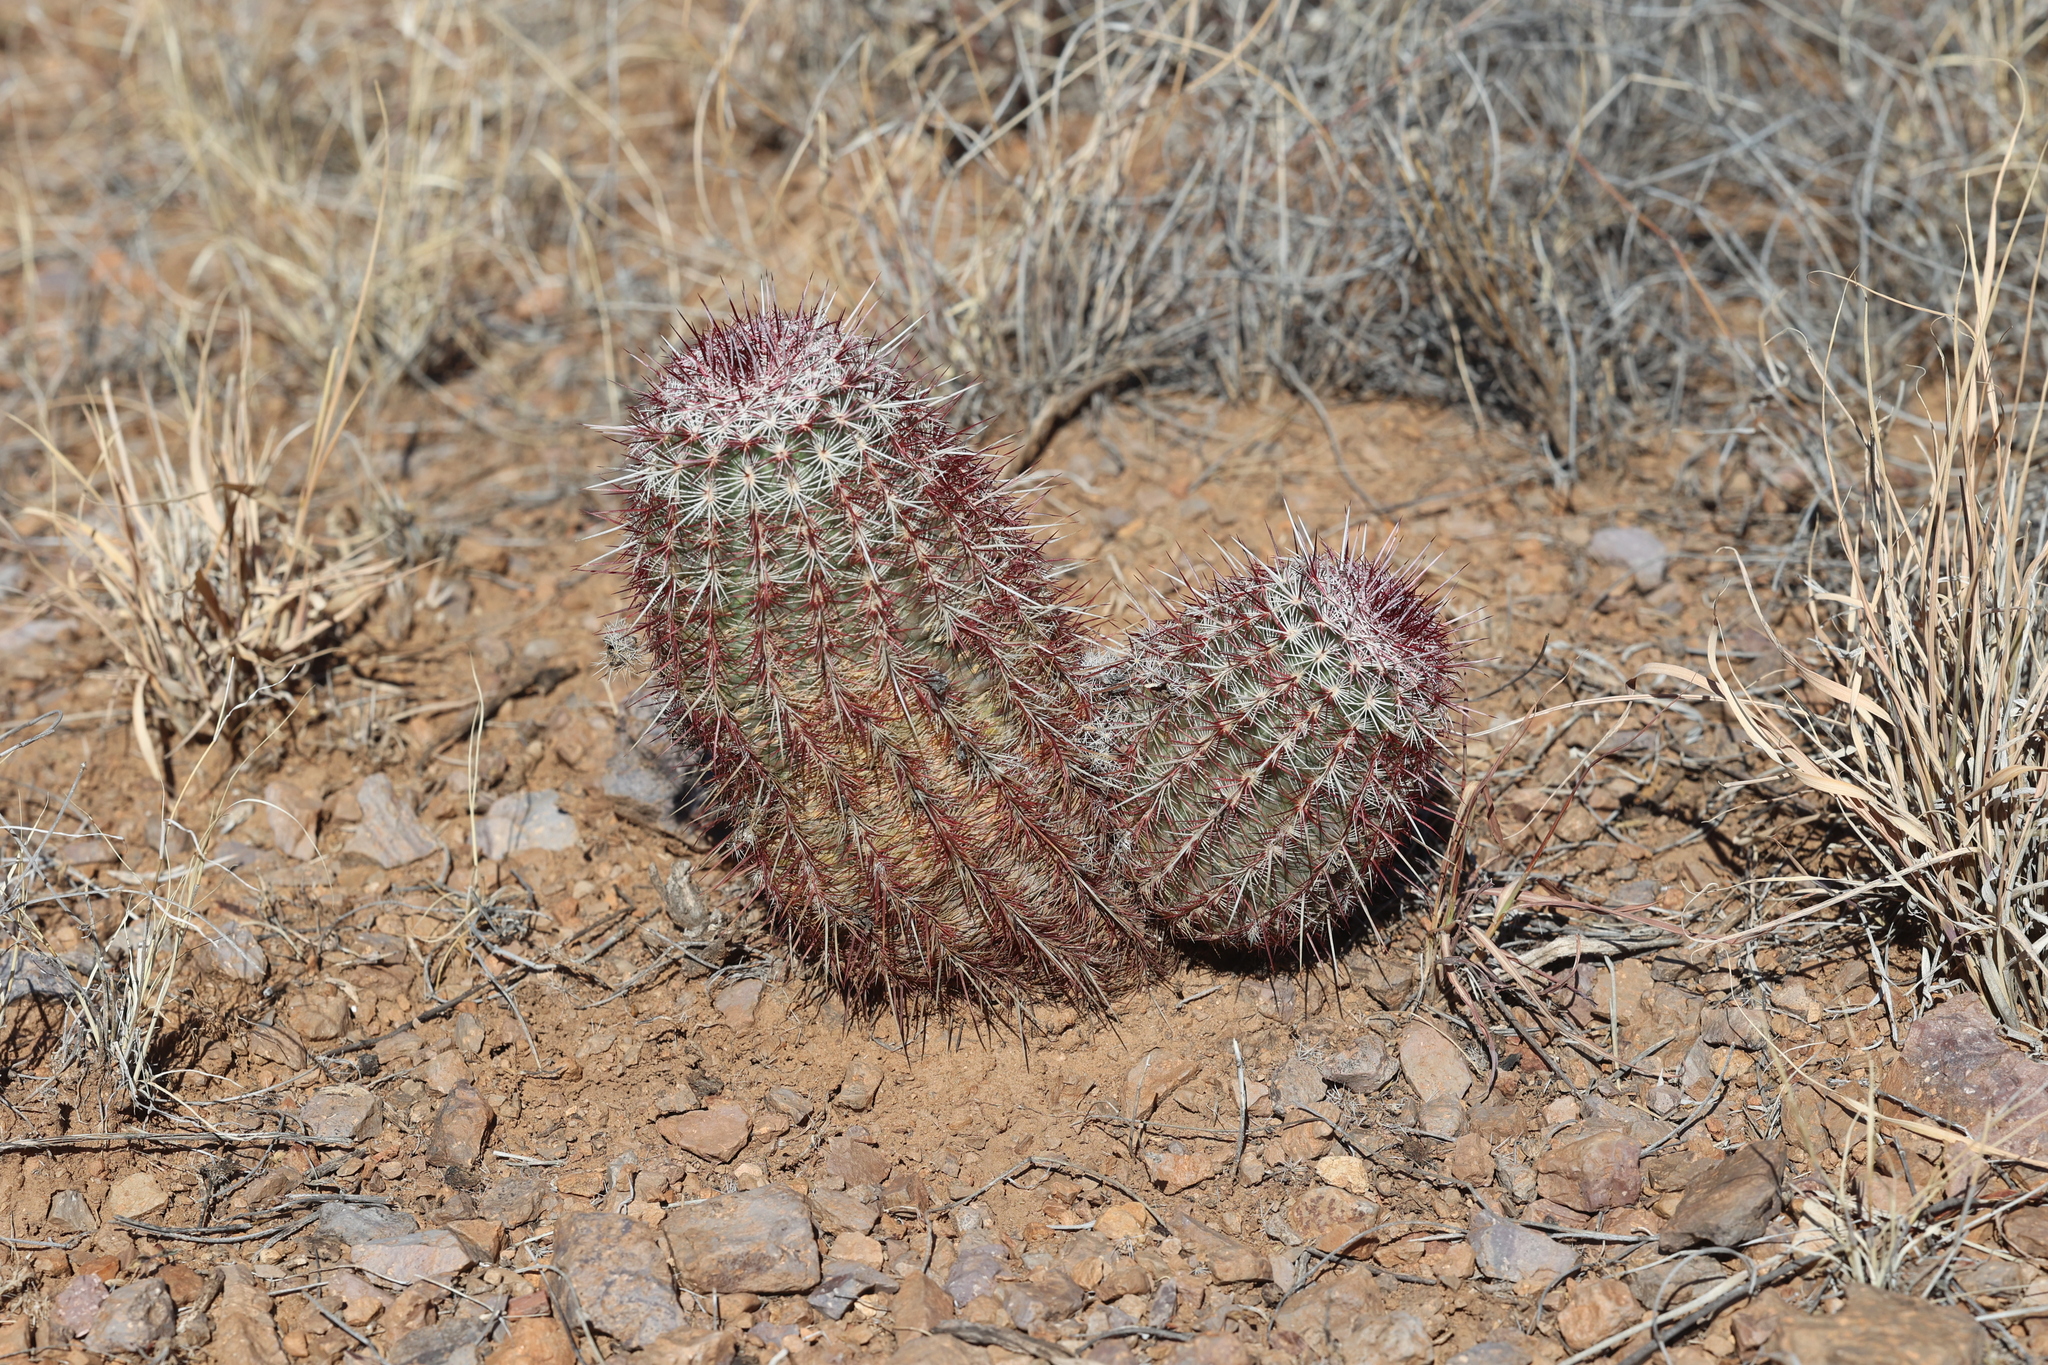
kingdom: Plantae
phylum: Tracheophyta
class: Magnoliopsida
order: Caryophyllales
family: Cactaceae
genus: Echinocereus
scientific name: Echinocereus viridiflorus
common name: Nylon hedgehog cactus
